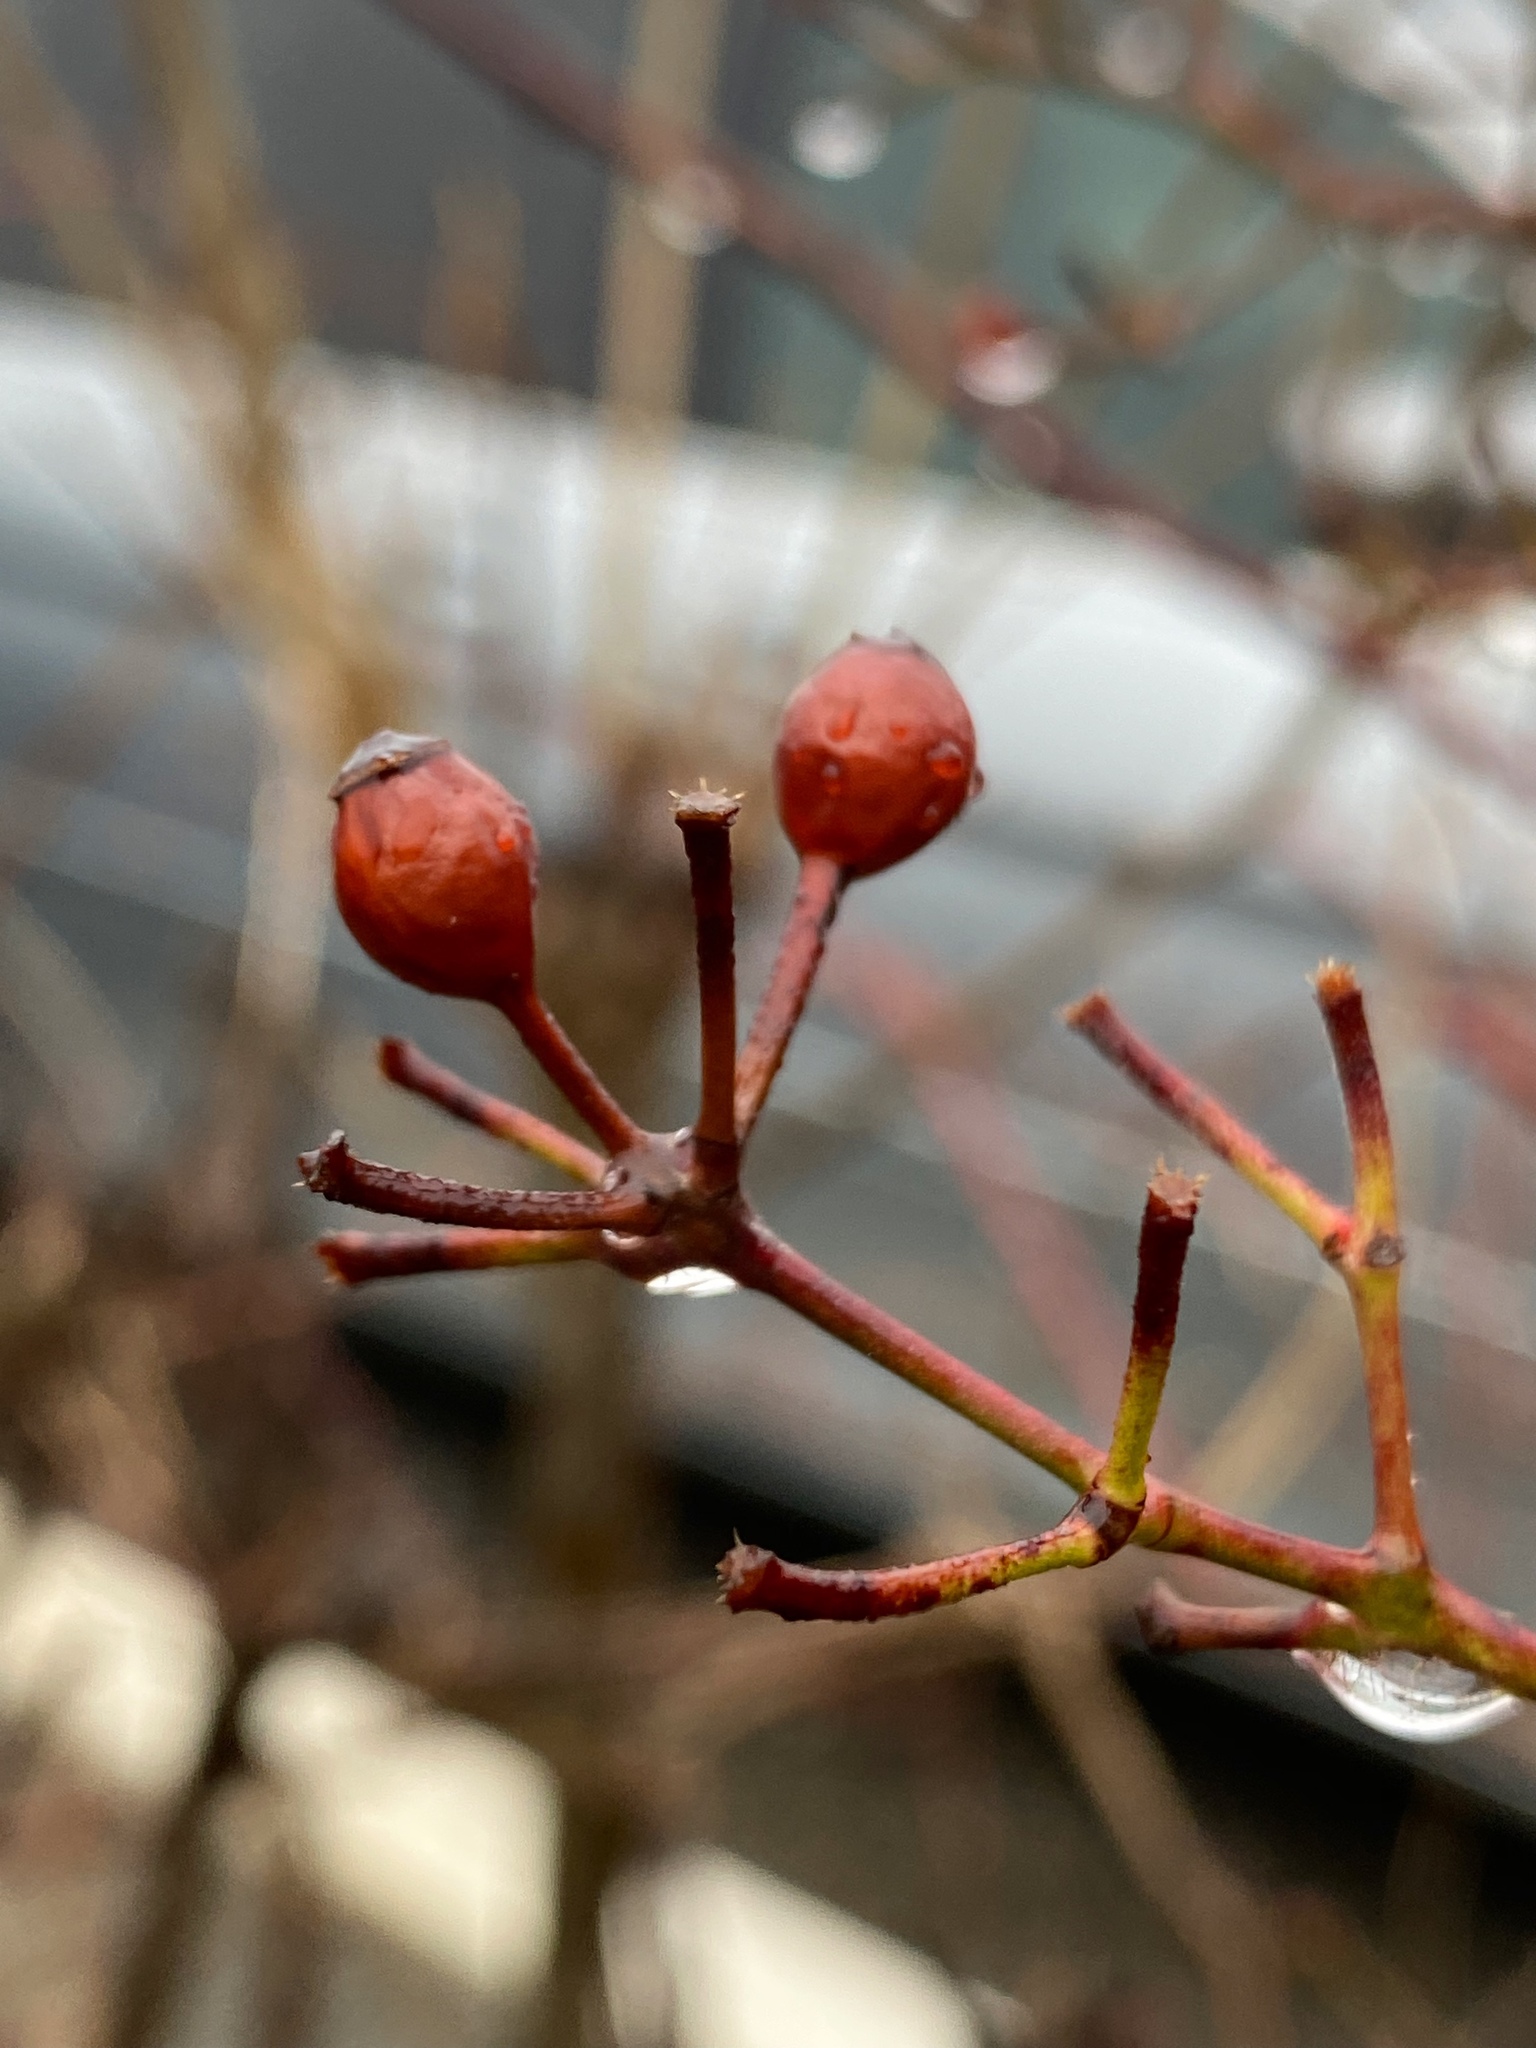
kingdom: Plantae
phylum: Tracheophyta
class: Magnoliopsida
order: Rosales
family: Rosaceae
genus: Rosa
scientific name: Rosa multiflora
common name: Multiflora rose
